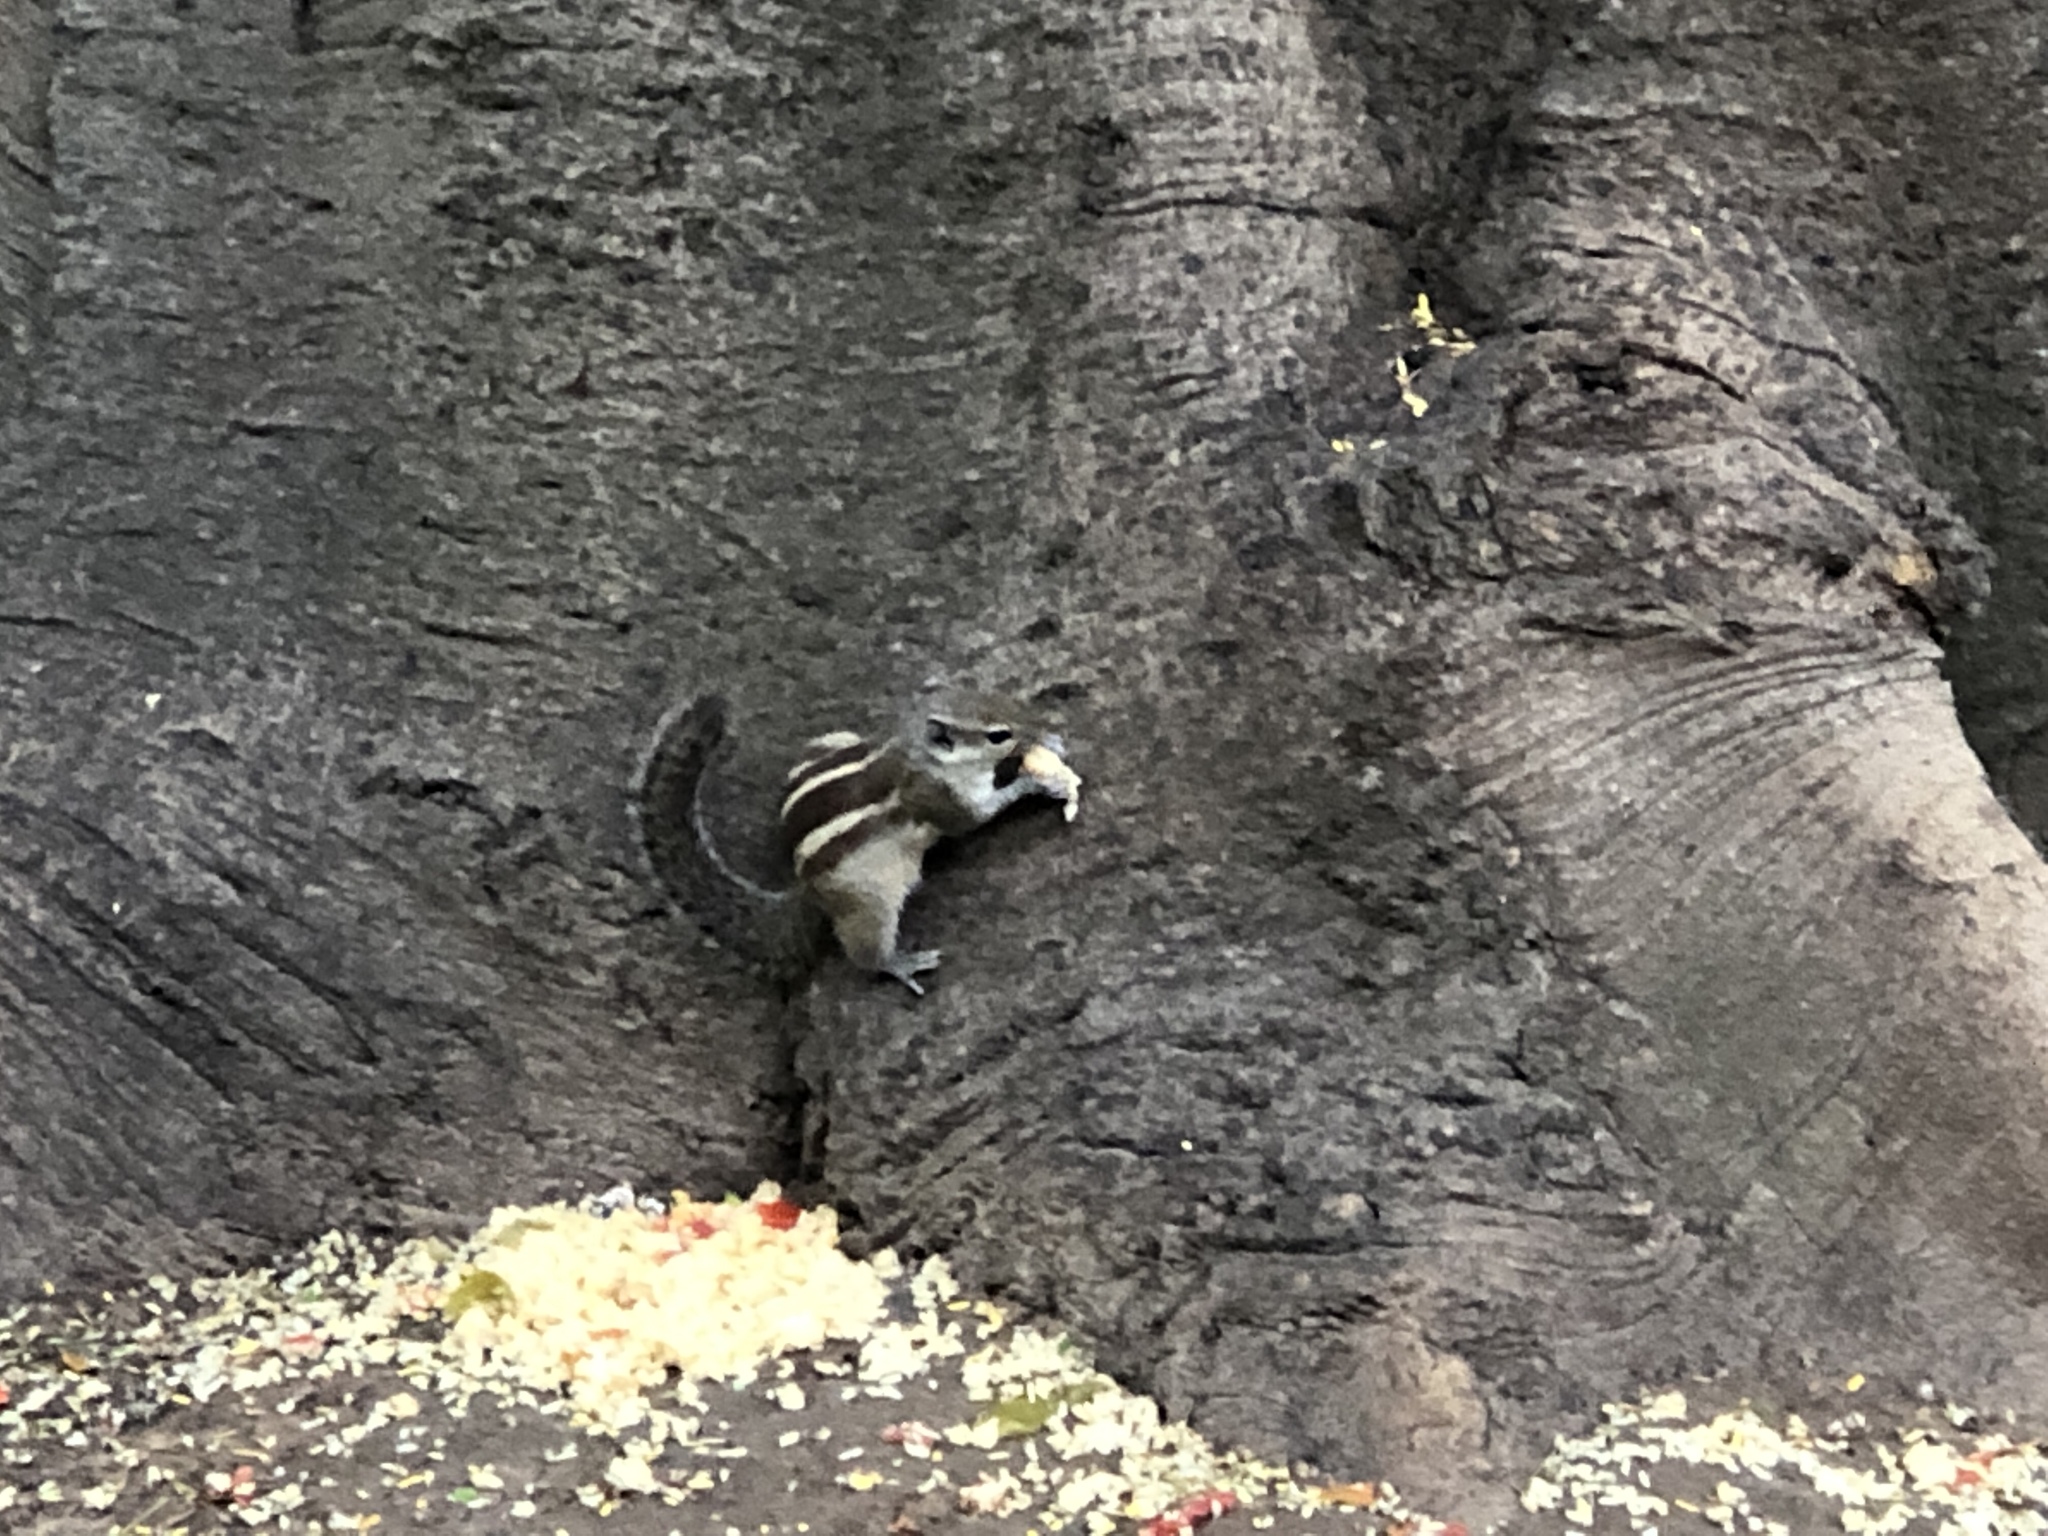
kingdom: Animalia
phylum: Chordata
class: Mammalia
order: Rodentia
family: Sciuridae
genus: Funambulus
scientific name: Funambulus palmarum
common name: Indian palm squirrel
